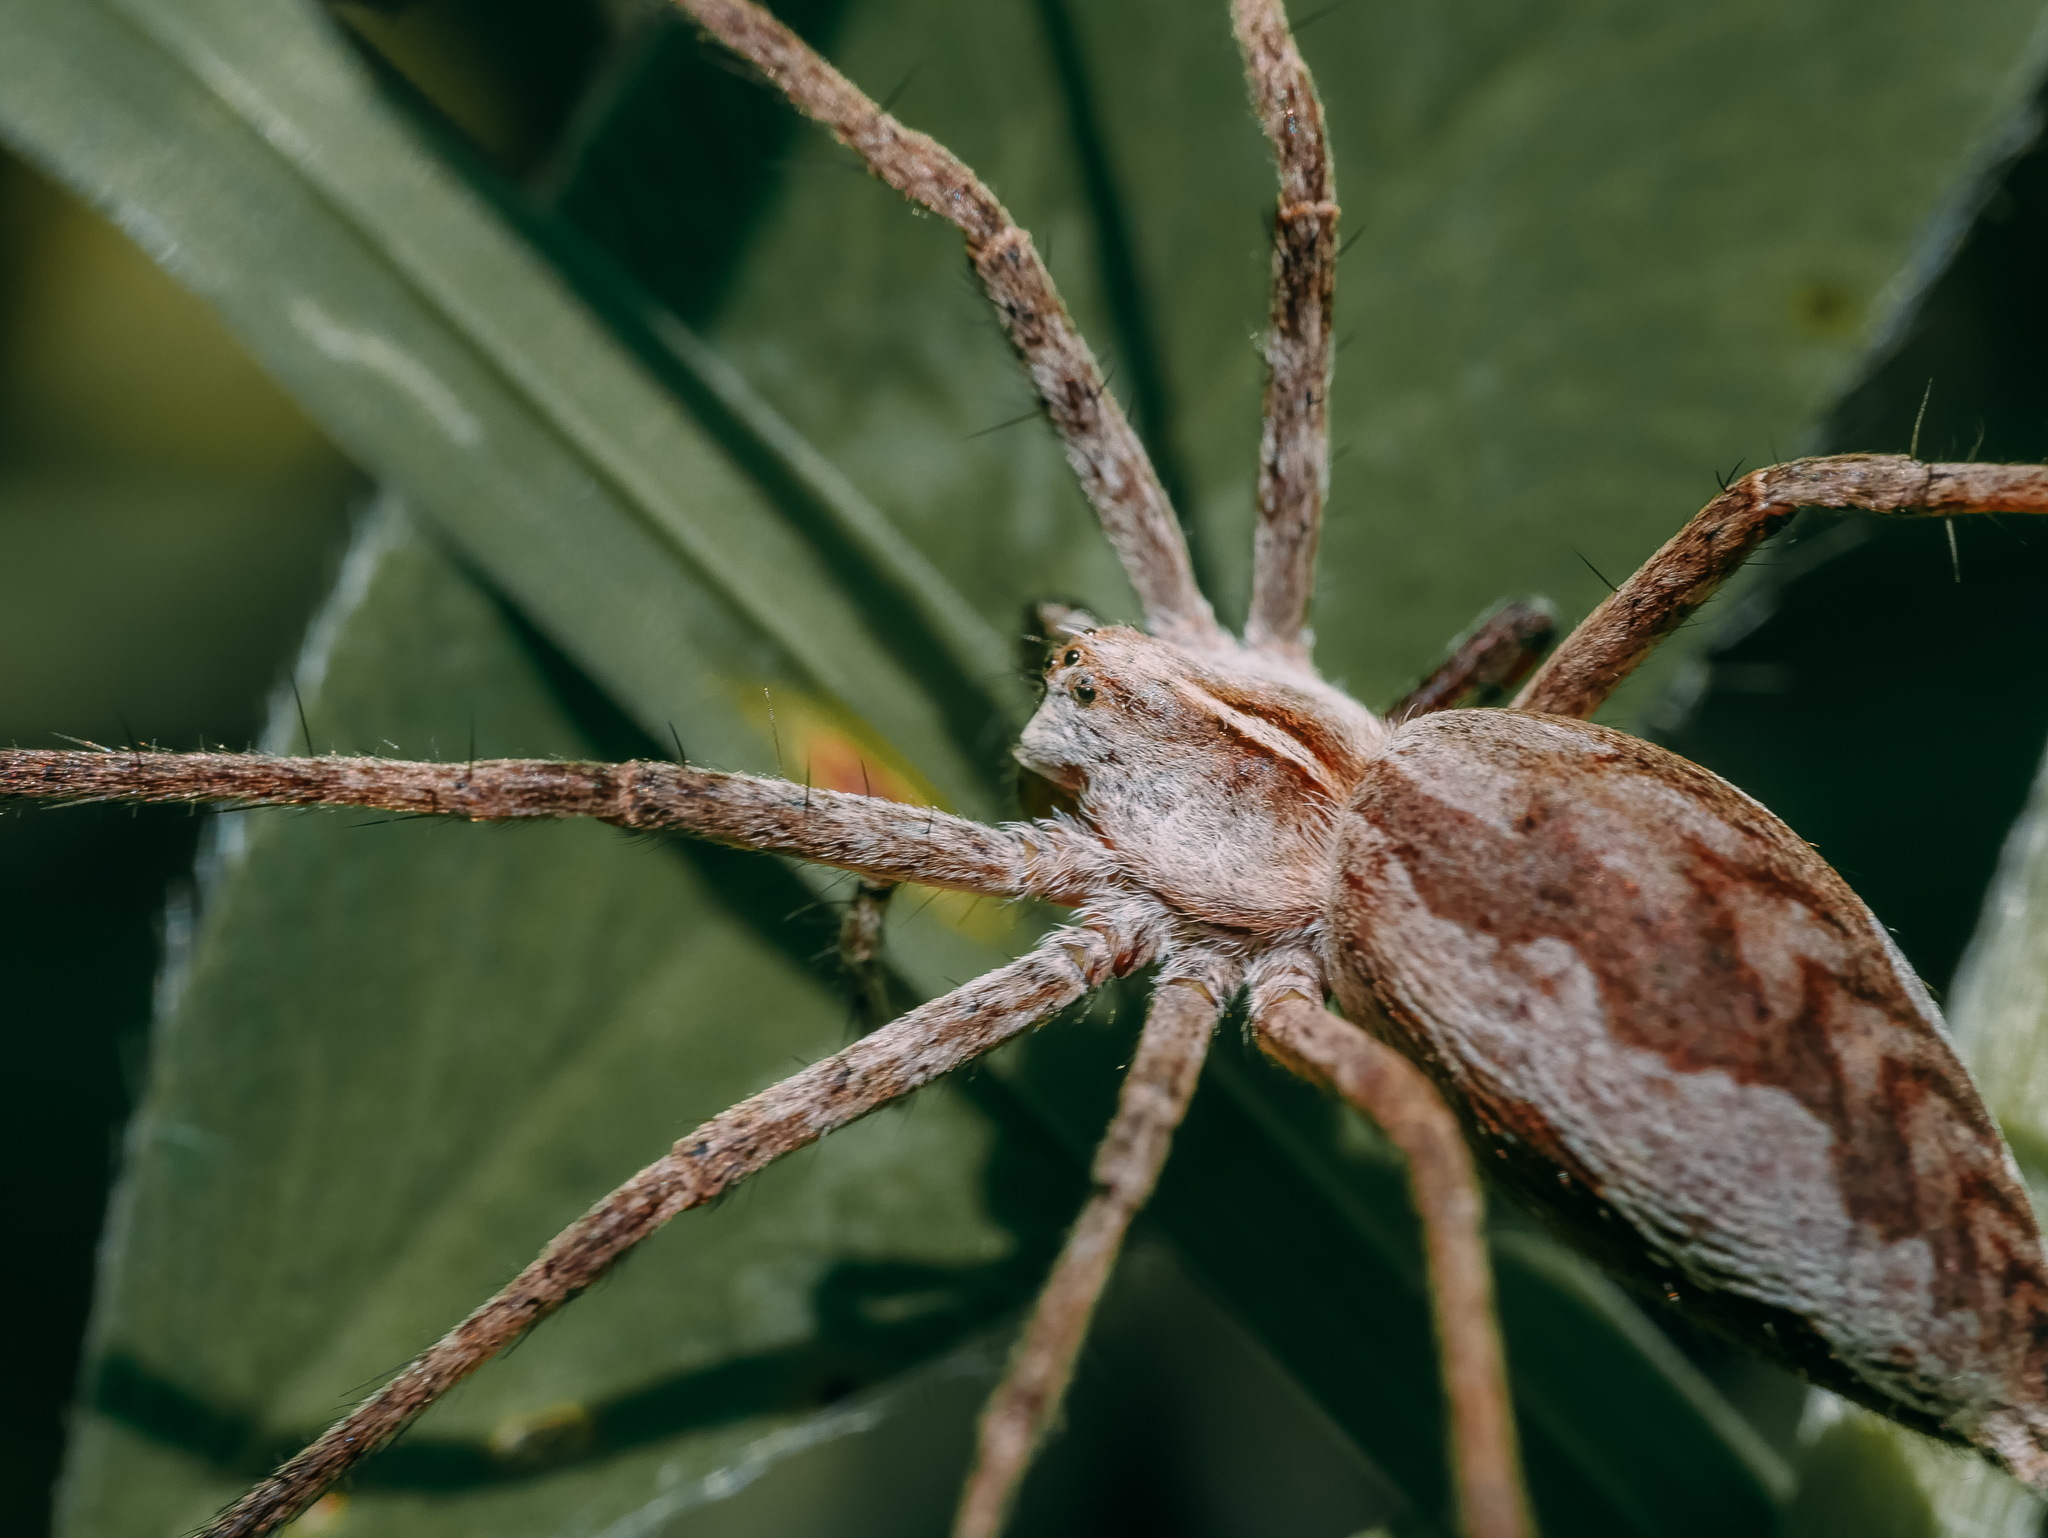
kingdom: Animalia
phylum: Arthropoda
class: Arachnida
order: Araneae
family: Pisauridae
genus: Pisaura
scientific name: Pisaura mirabilis
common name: Tent spider
